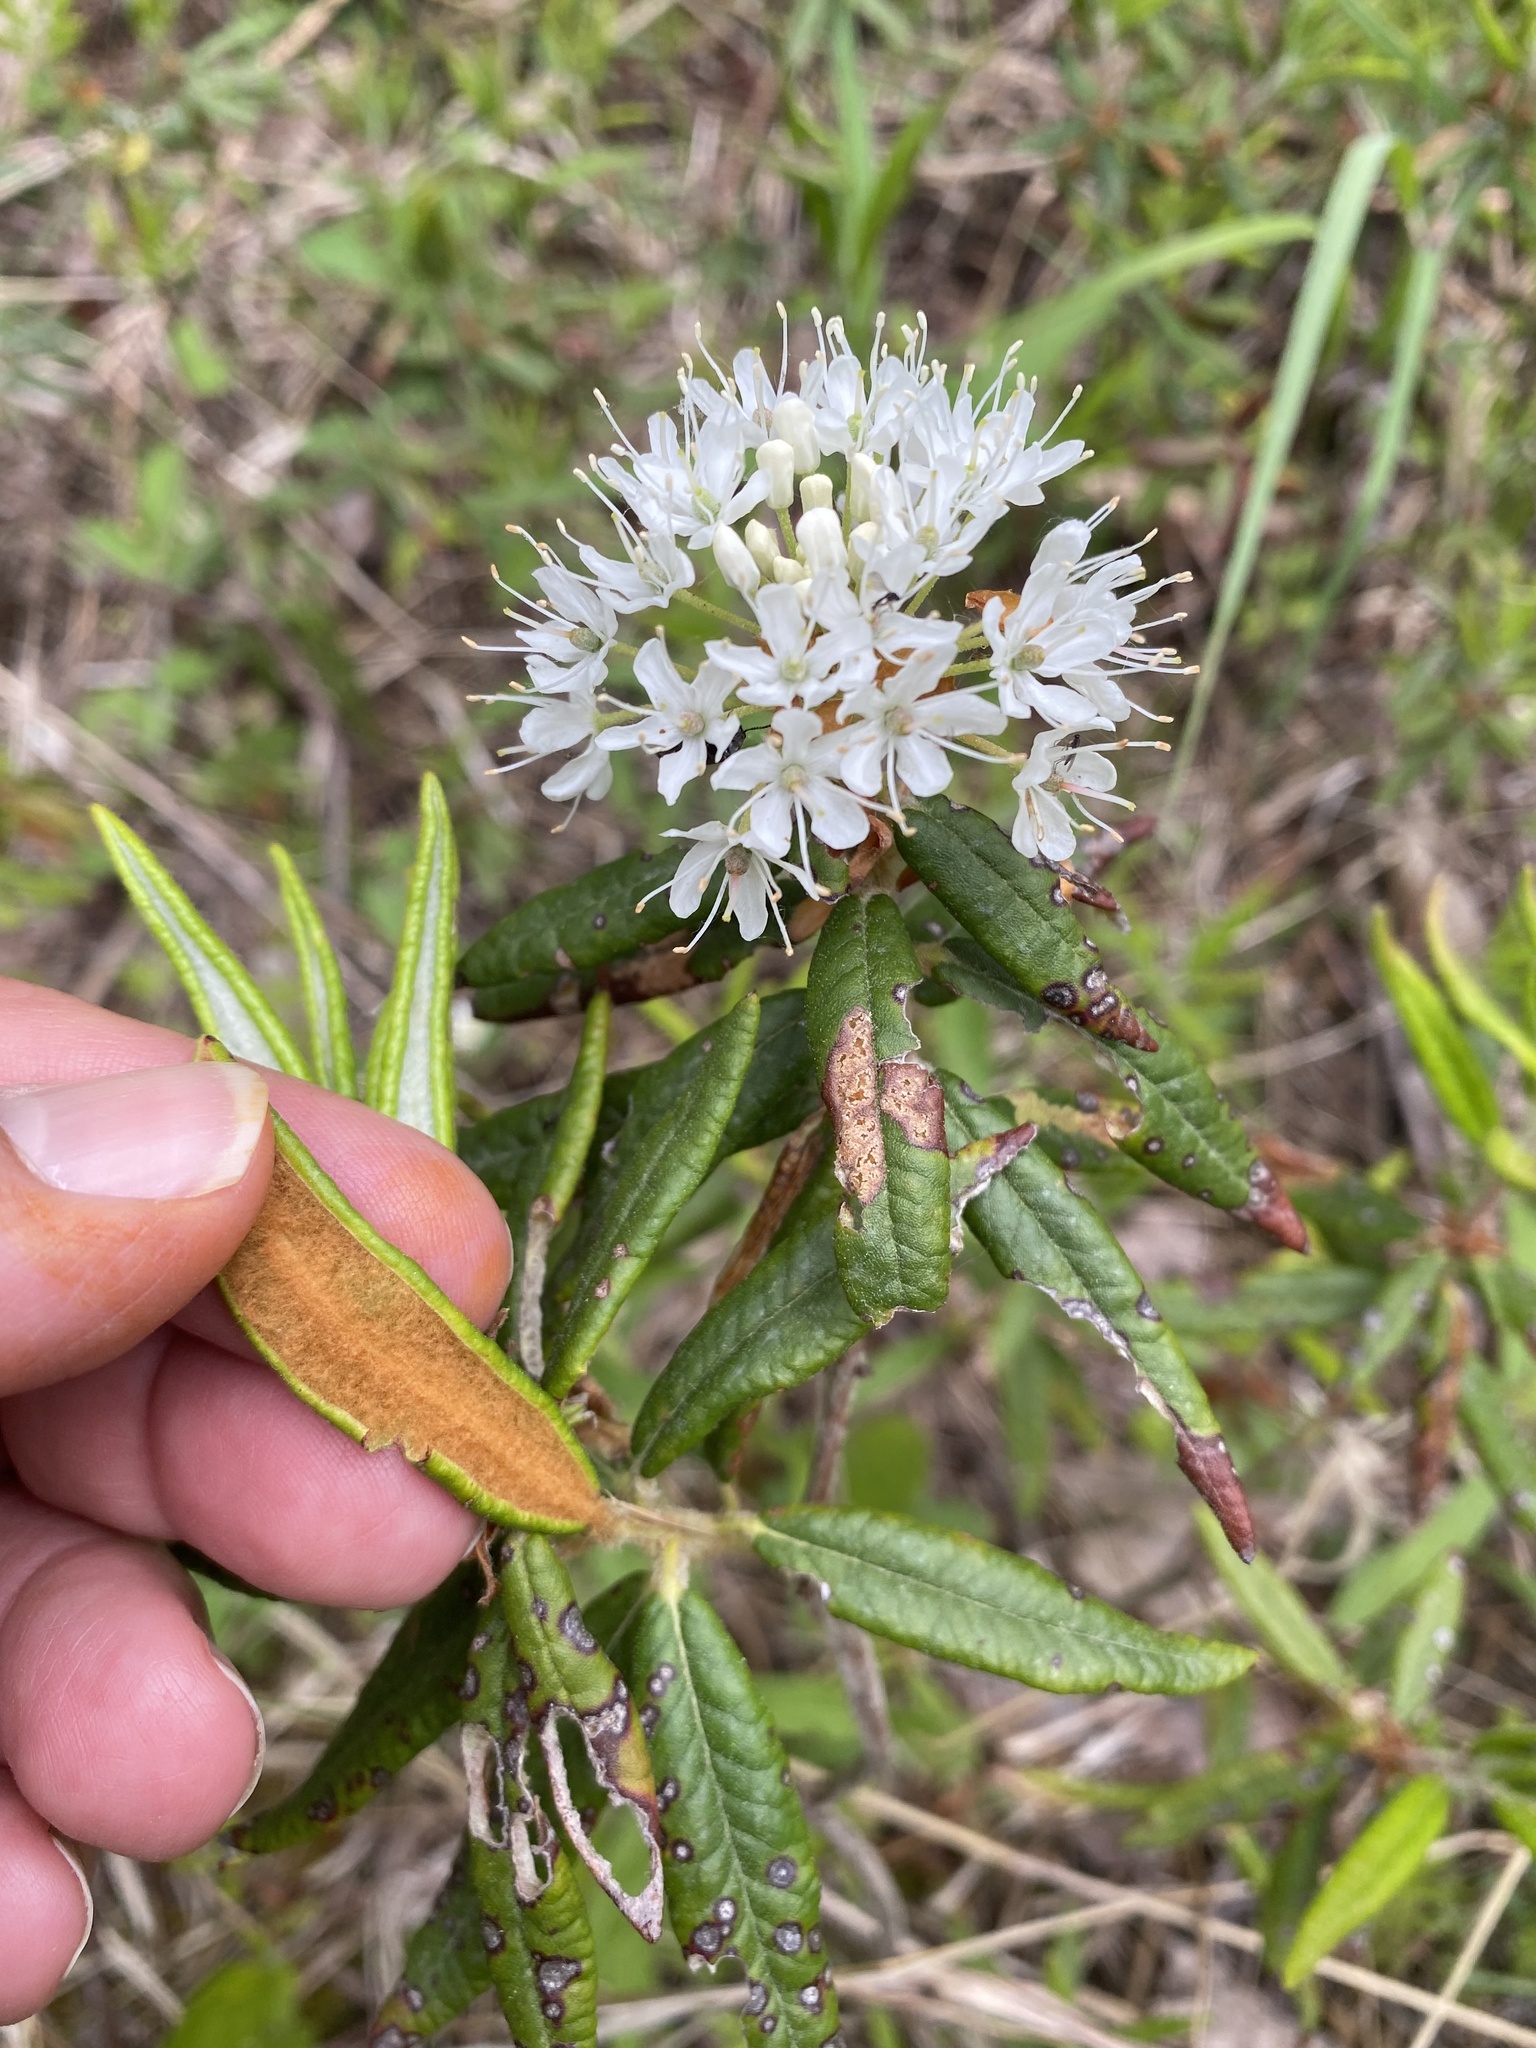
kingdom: Plantae
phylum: Tracheophyta
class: Magnoliopsida
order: Ericales
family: Ericaceae
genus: Rhododendron
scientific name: Rhododendron groenlandicum
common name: Bog labrador tea
